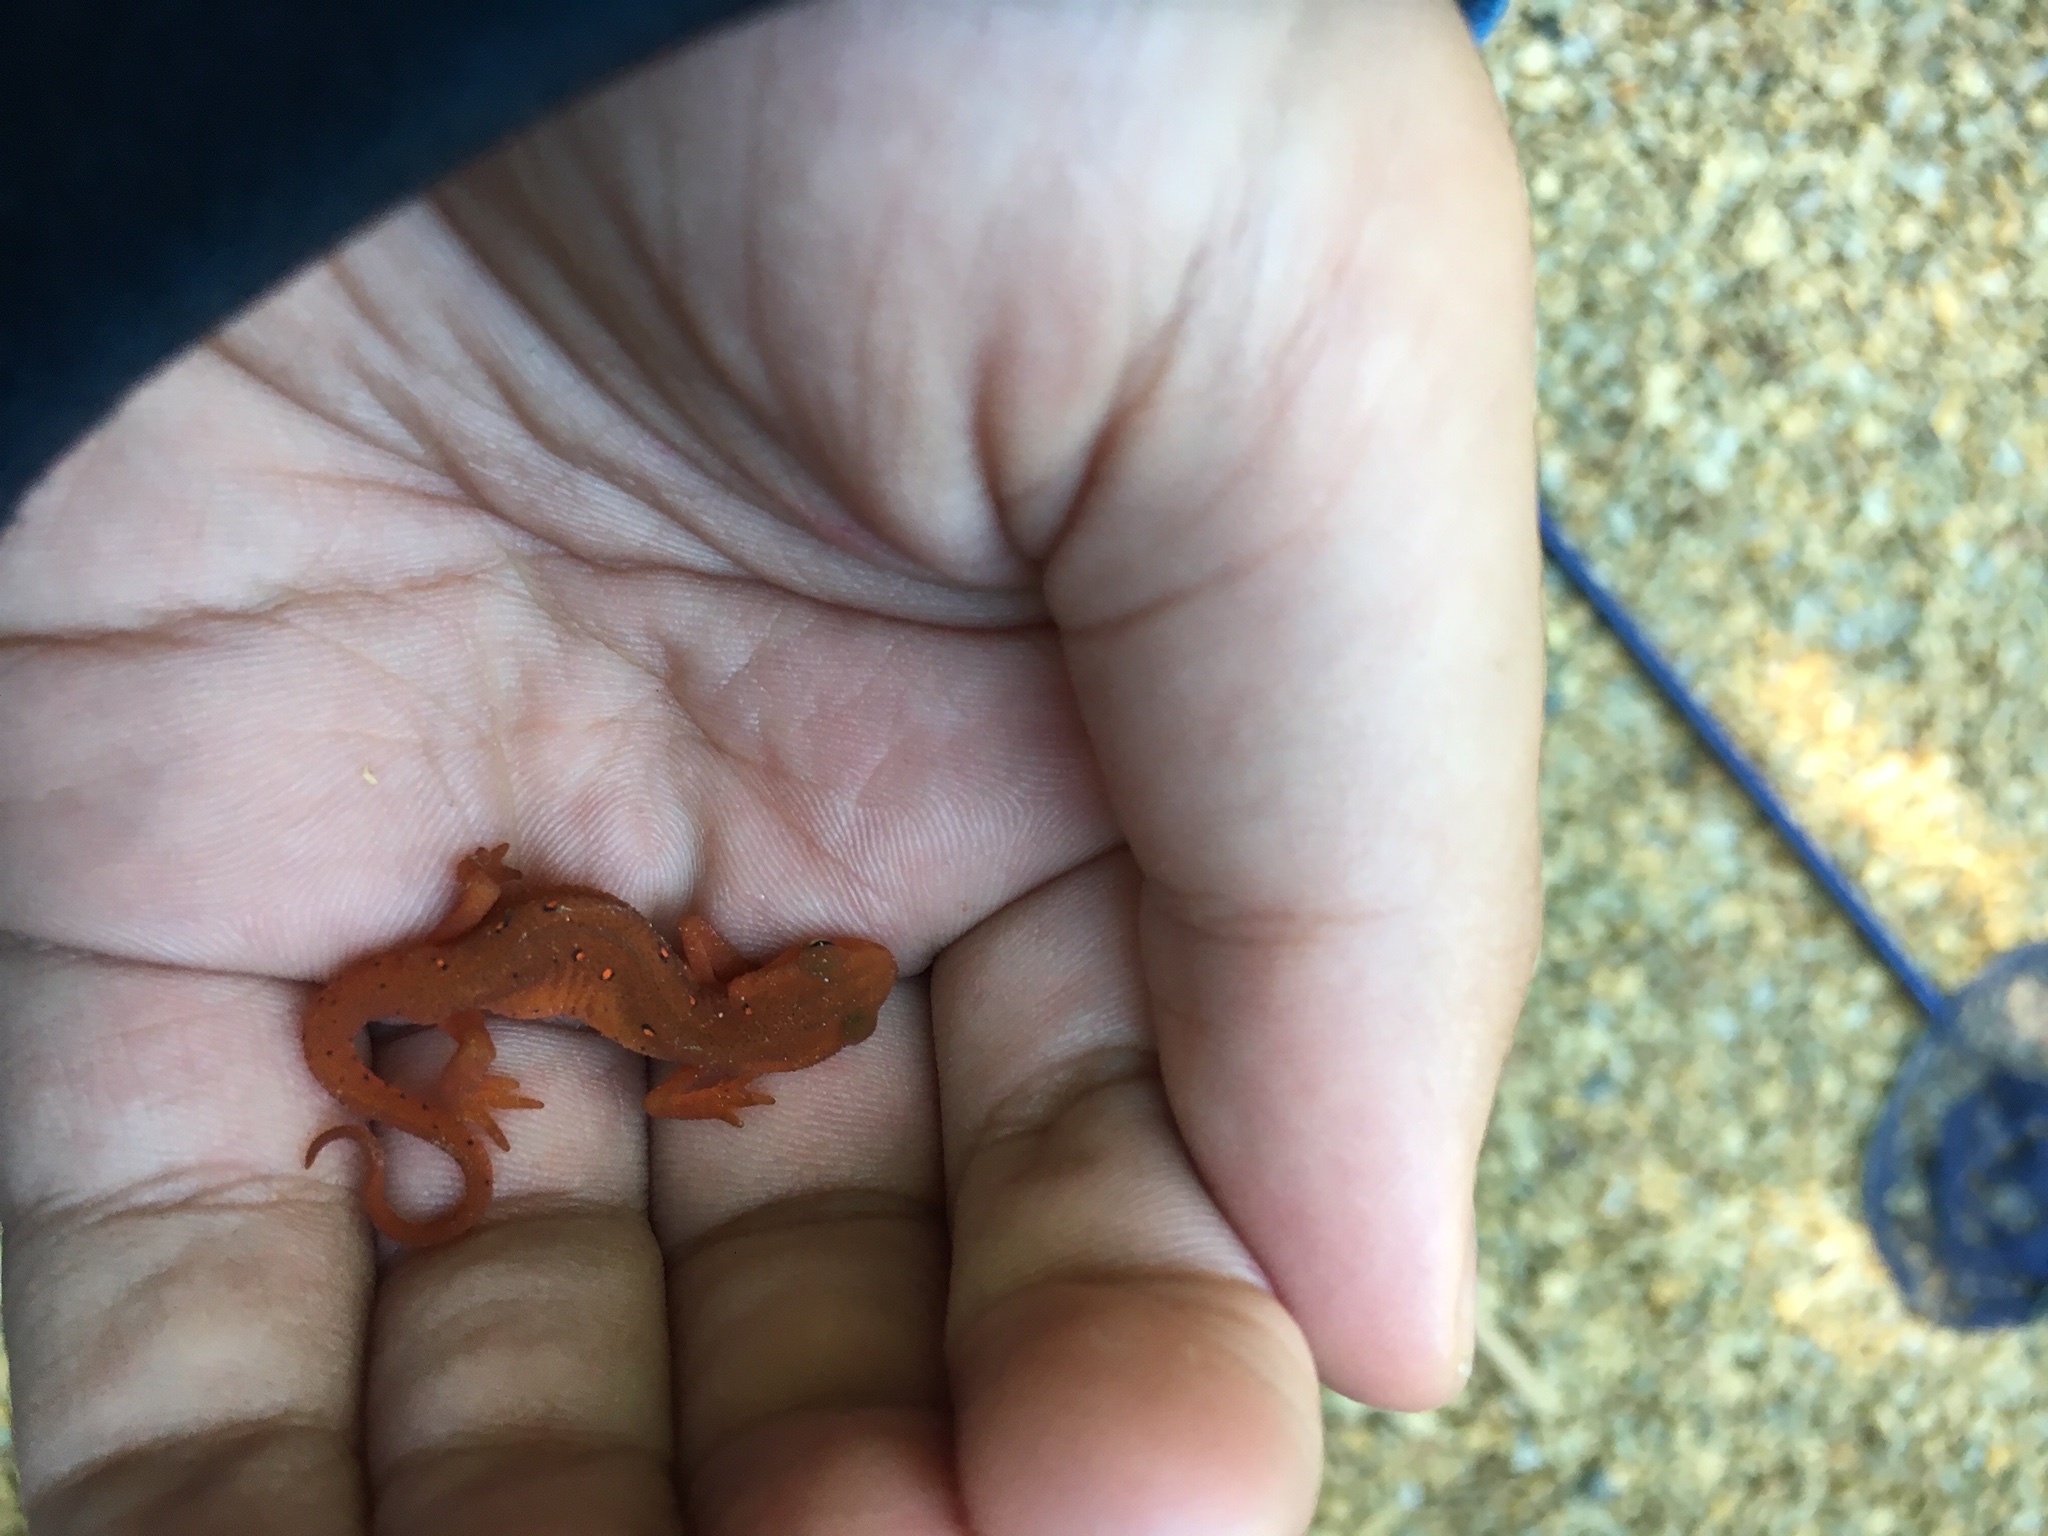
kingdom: Animalia
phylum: Chordata
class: Amphibia
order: Caudata
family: Salamandridae
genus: Notophthalmus
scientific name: Notophthalmus viridescens
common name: Eastern newt
